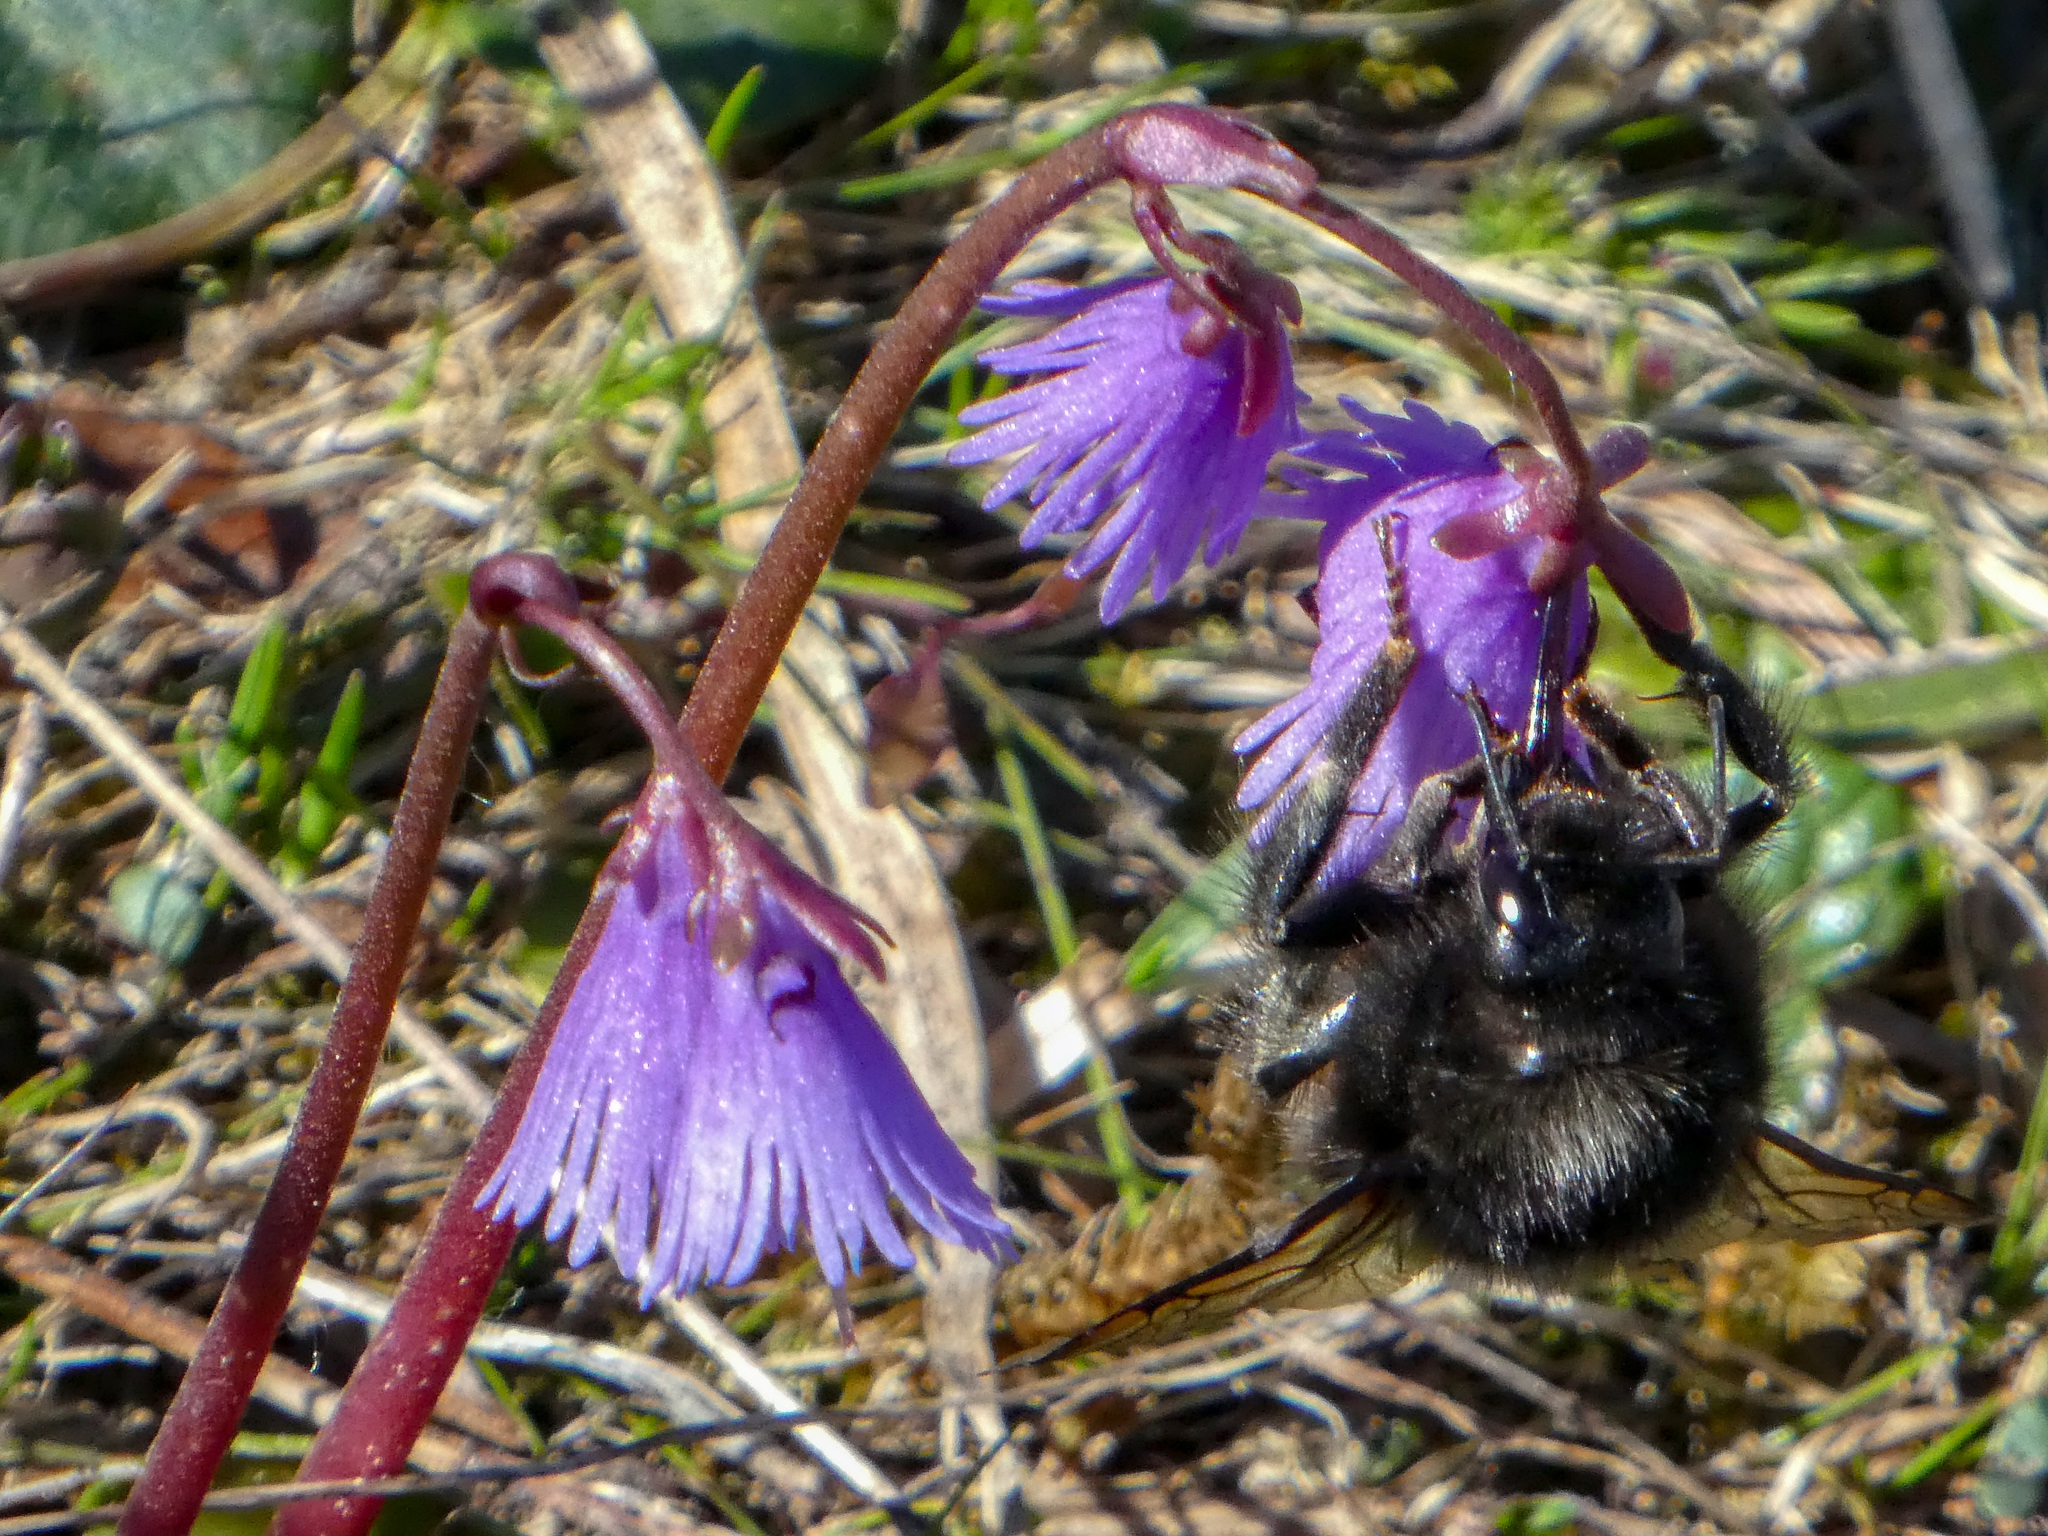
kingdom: Animalia
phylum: Arthropoda
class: Insecta
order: Hymenoptera
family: Apidae
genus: Bombus
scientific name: Bombus wurflenii
